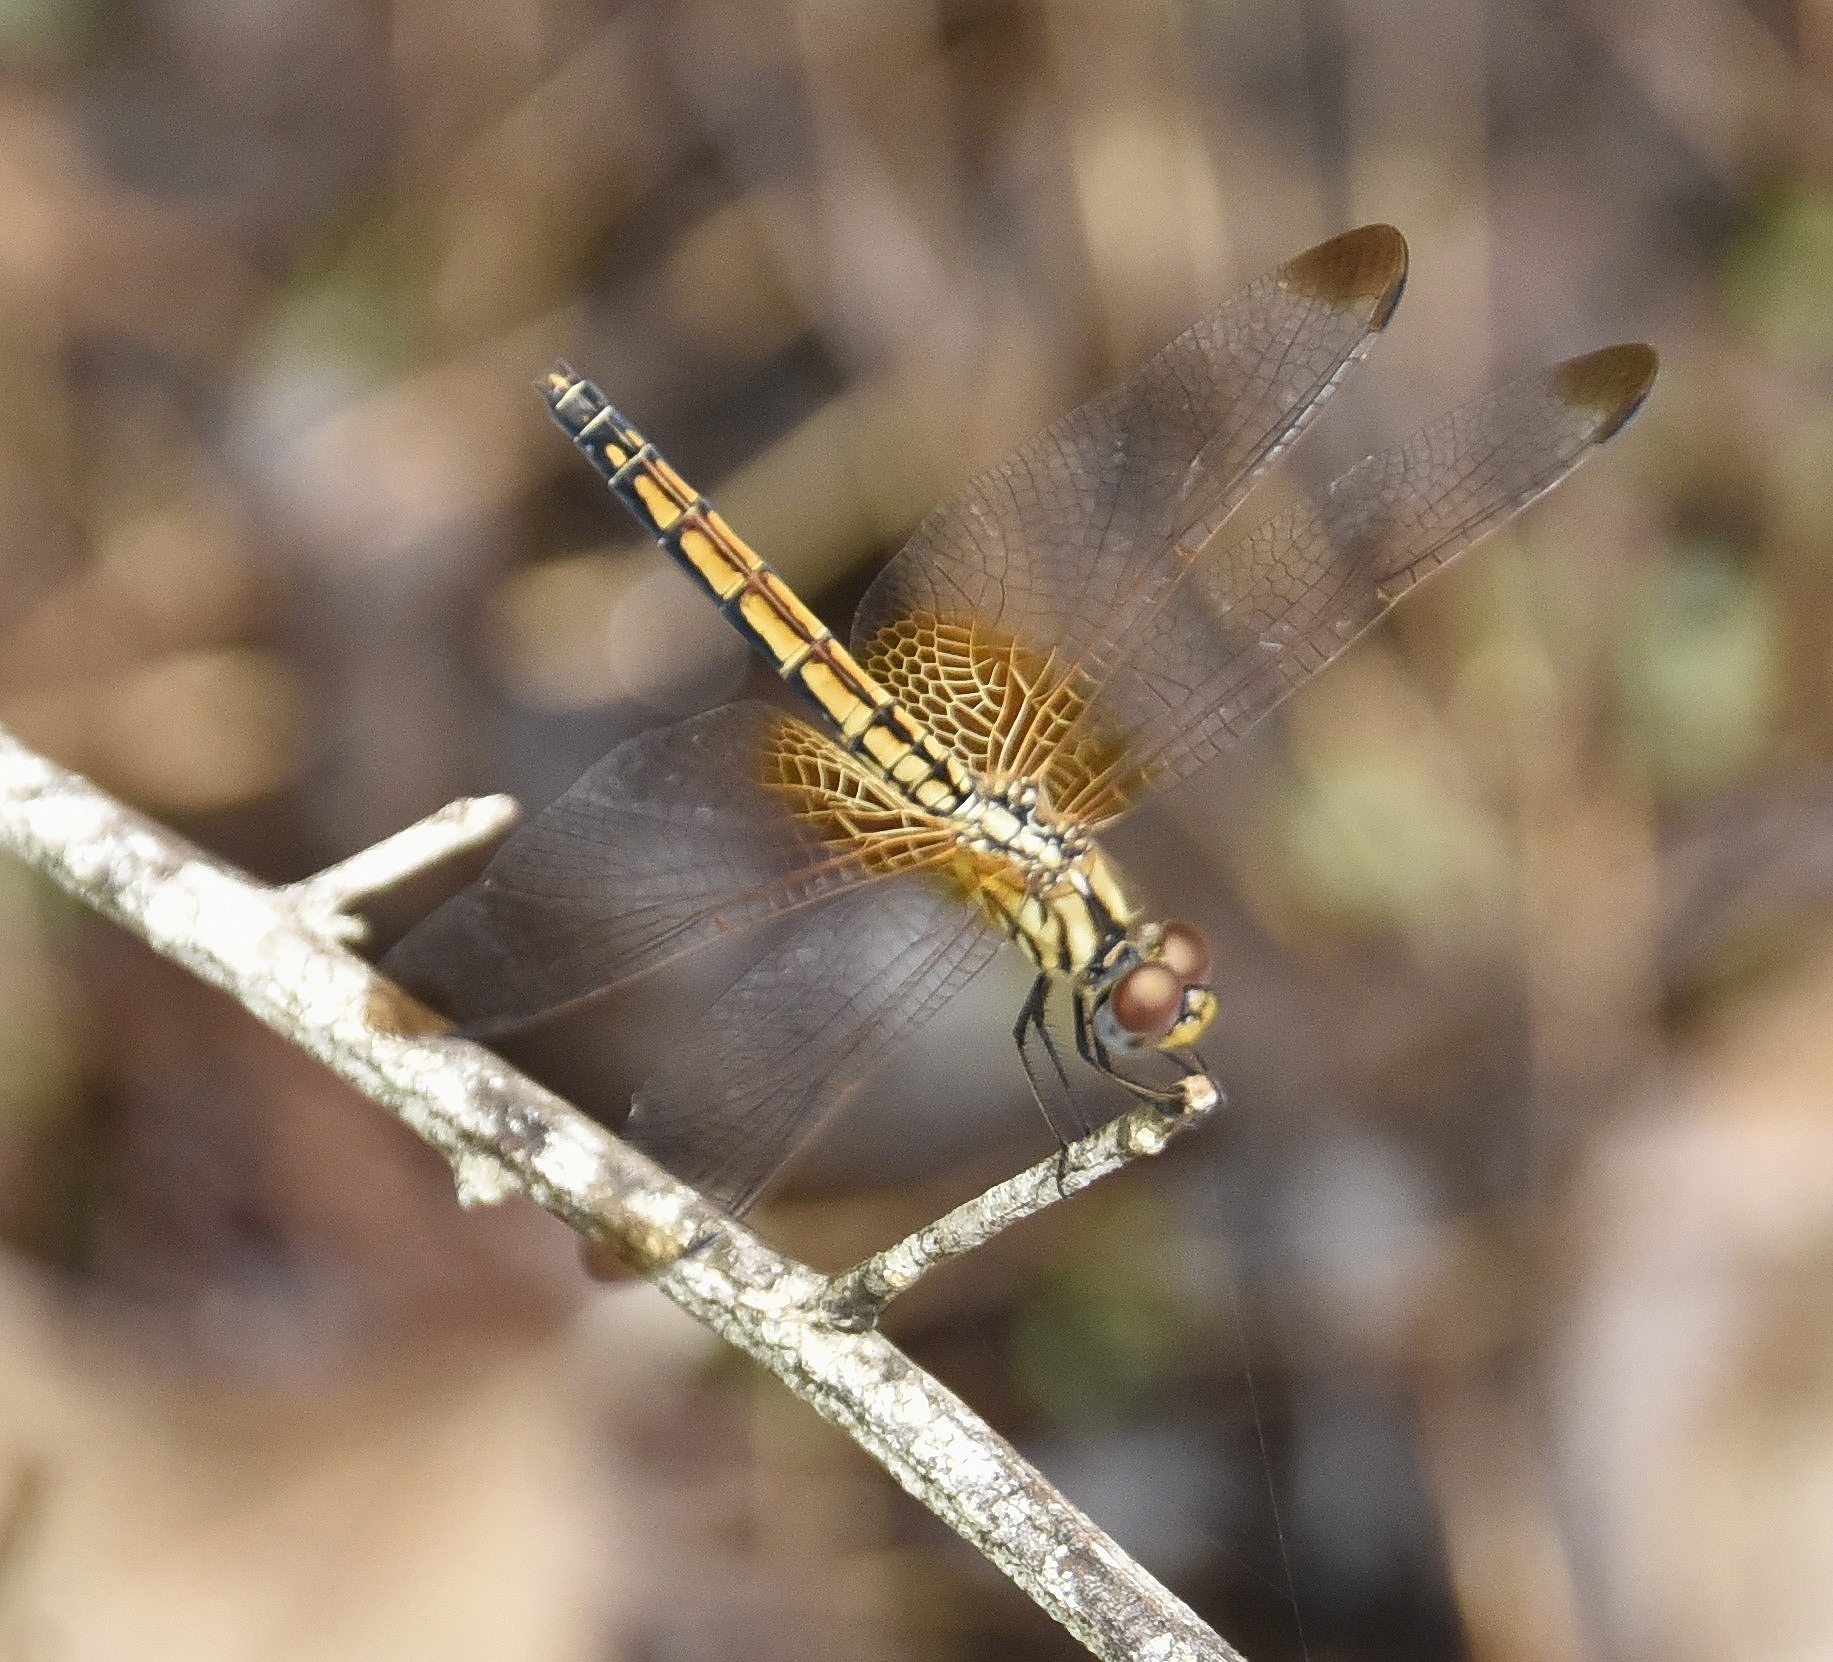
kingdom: Animalia
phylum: Arthropoda
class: Insecta
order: Odonata
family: Libellulidae
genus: Trithemis
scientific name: Trithemis aurora
